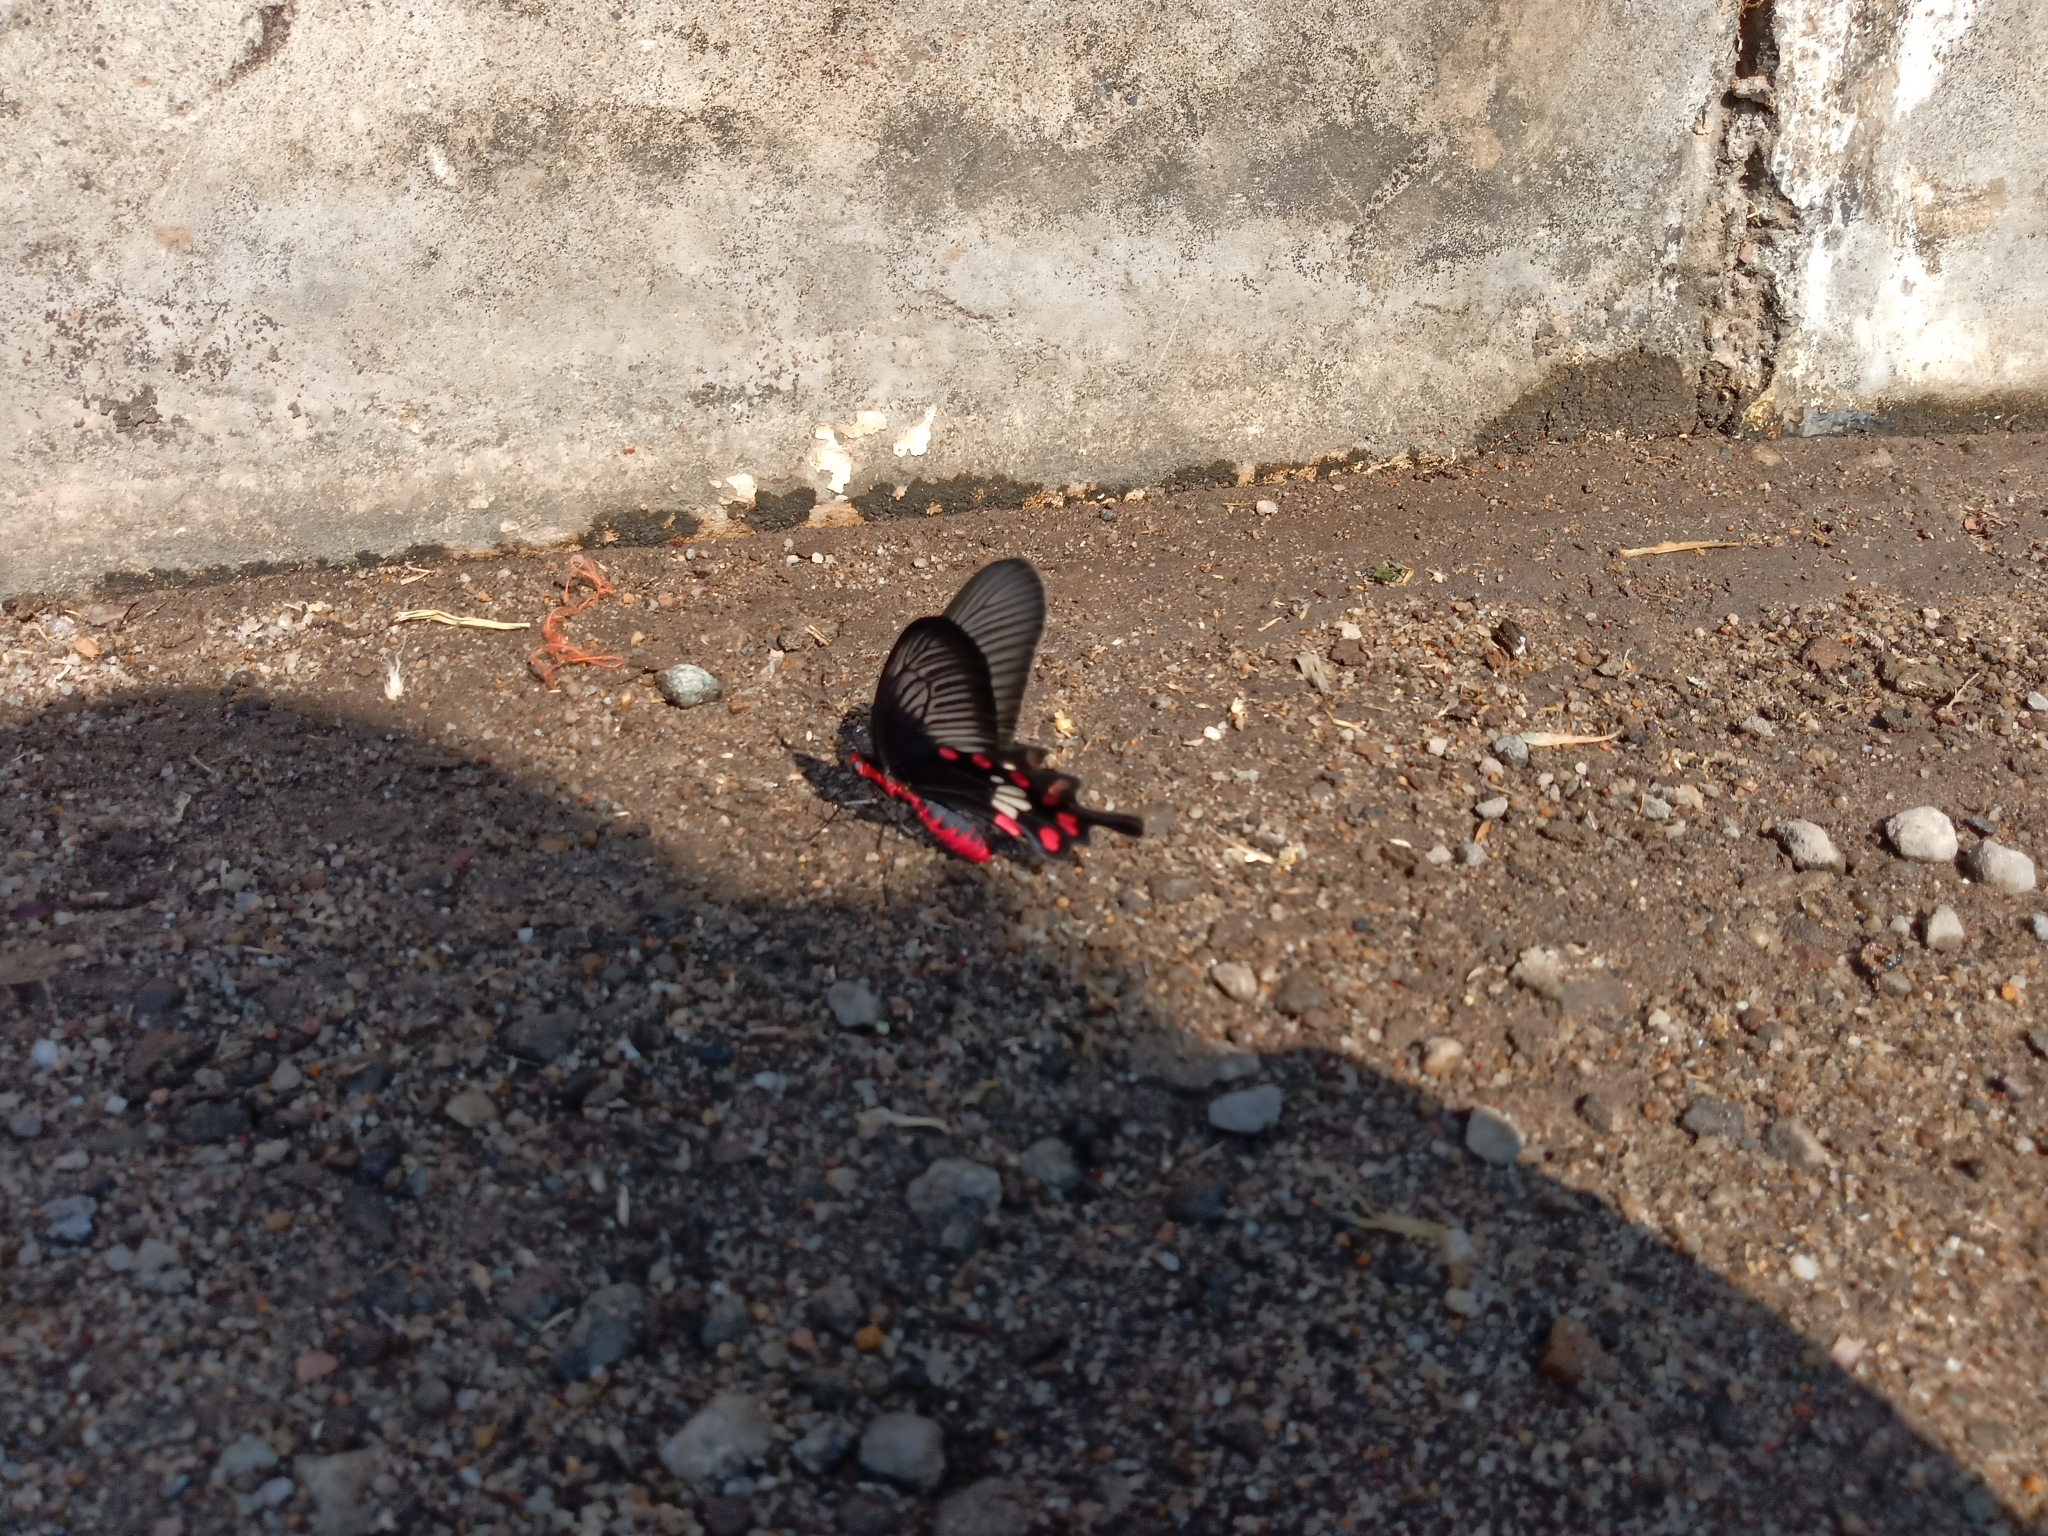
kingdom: Animalia
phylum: Arthropoda
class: Insecta
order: Lepidoptera
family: Papilionidae
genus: Pachliopta
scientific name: Pachliopta aristolochiae
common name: Common rose
